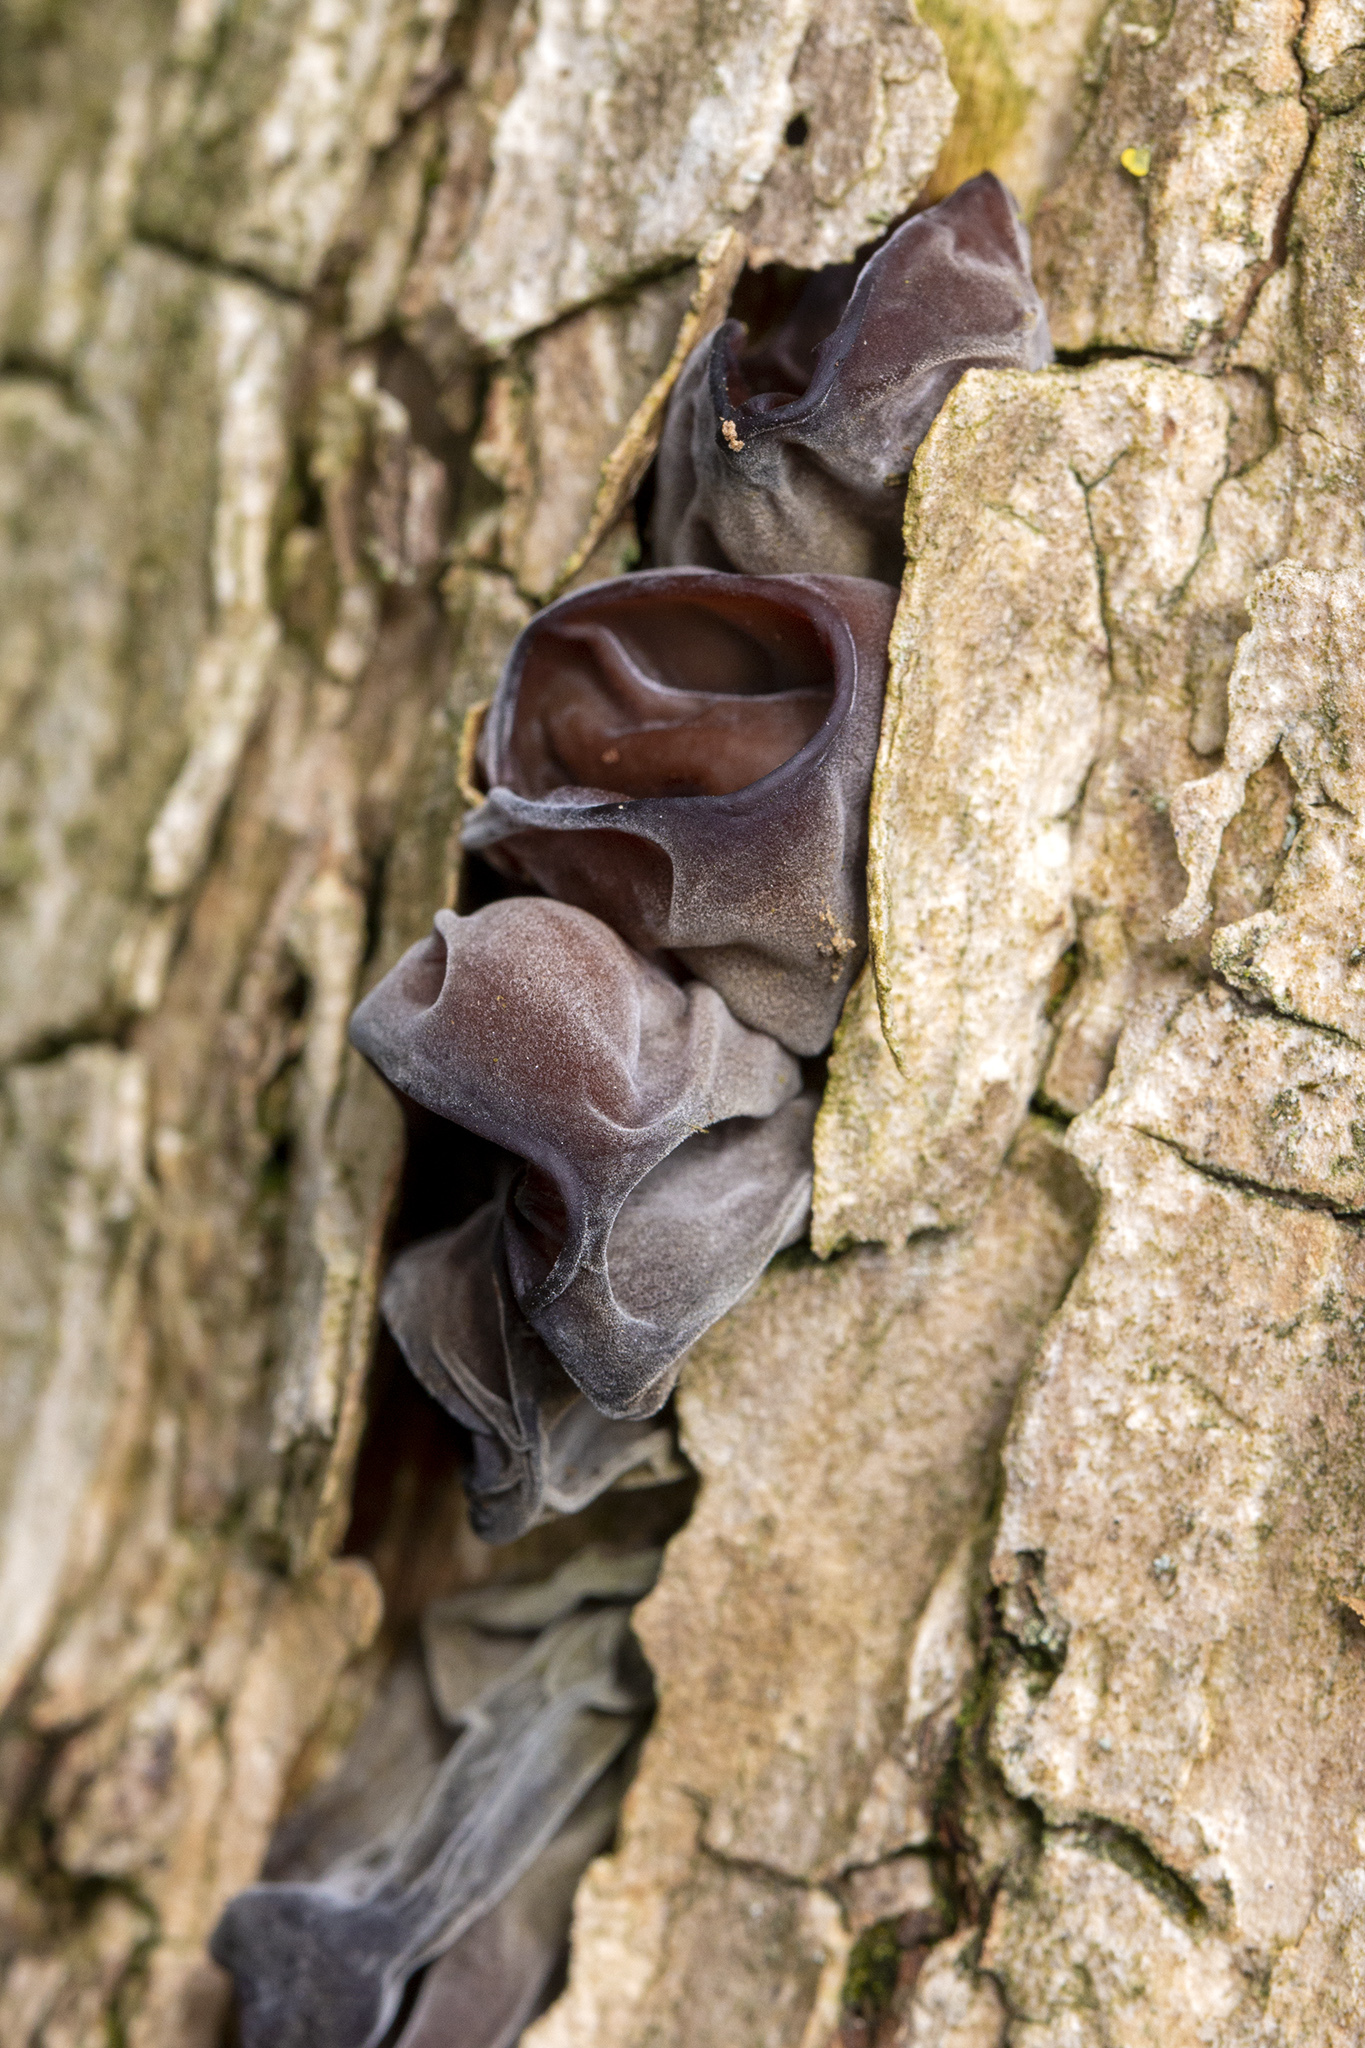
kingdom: Fungi
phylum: Basidiomycota
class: Agaricomycetes
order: Auriculariales
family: Auriculariaceae
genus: Auricularia
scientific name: Auricularia auricula-judae
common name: Jelly ear
